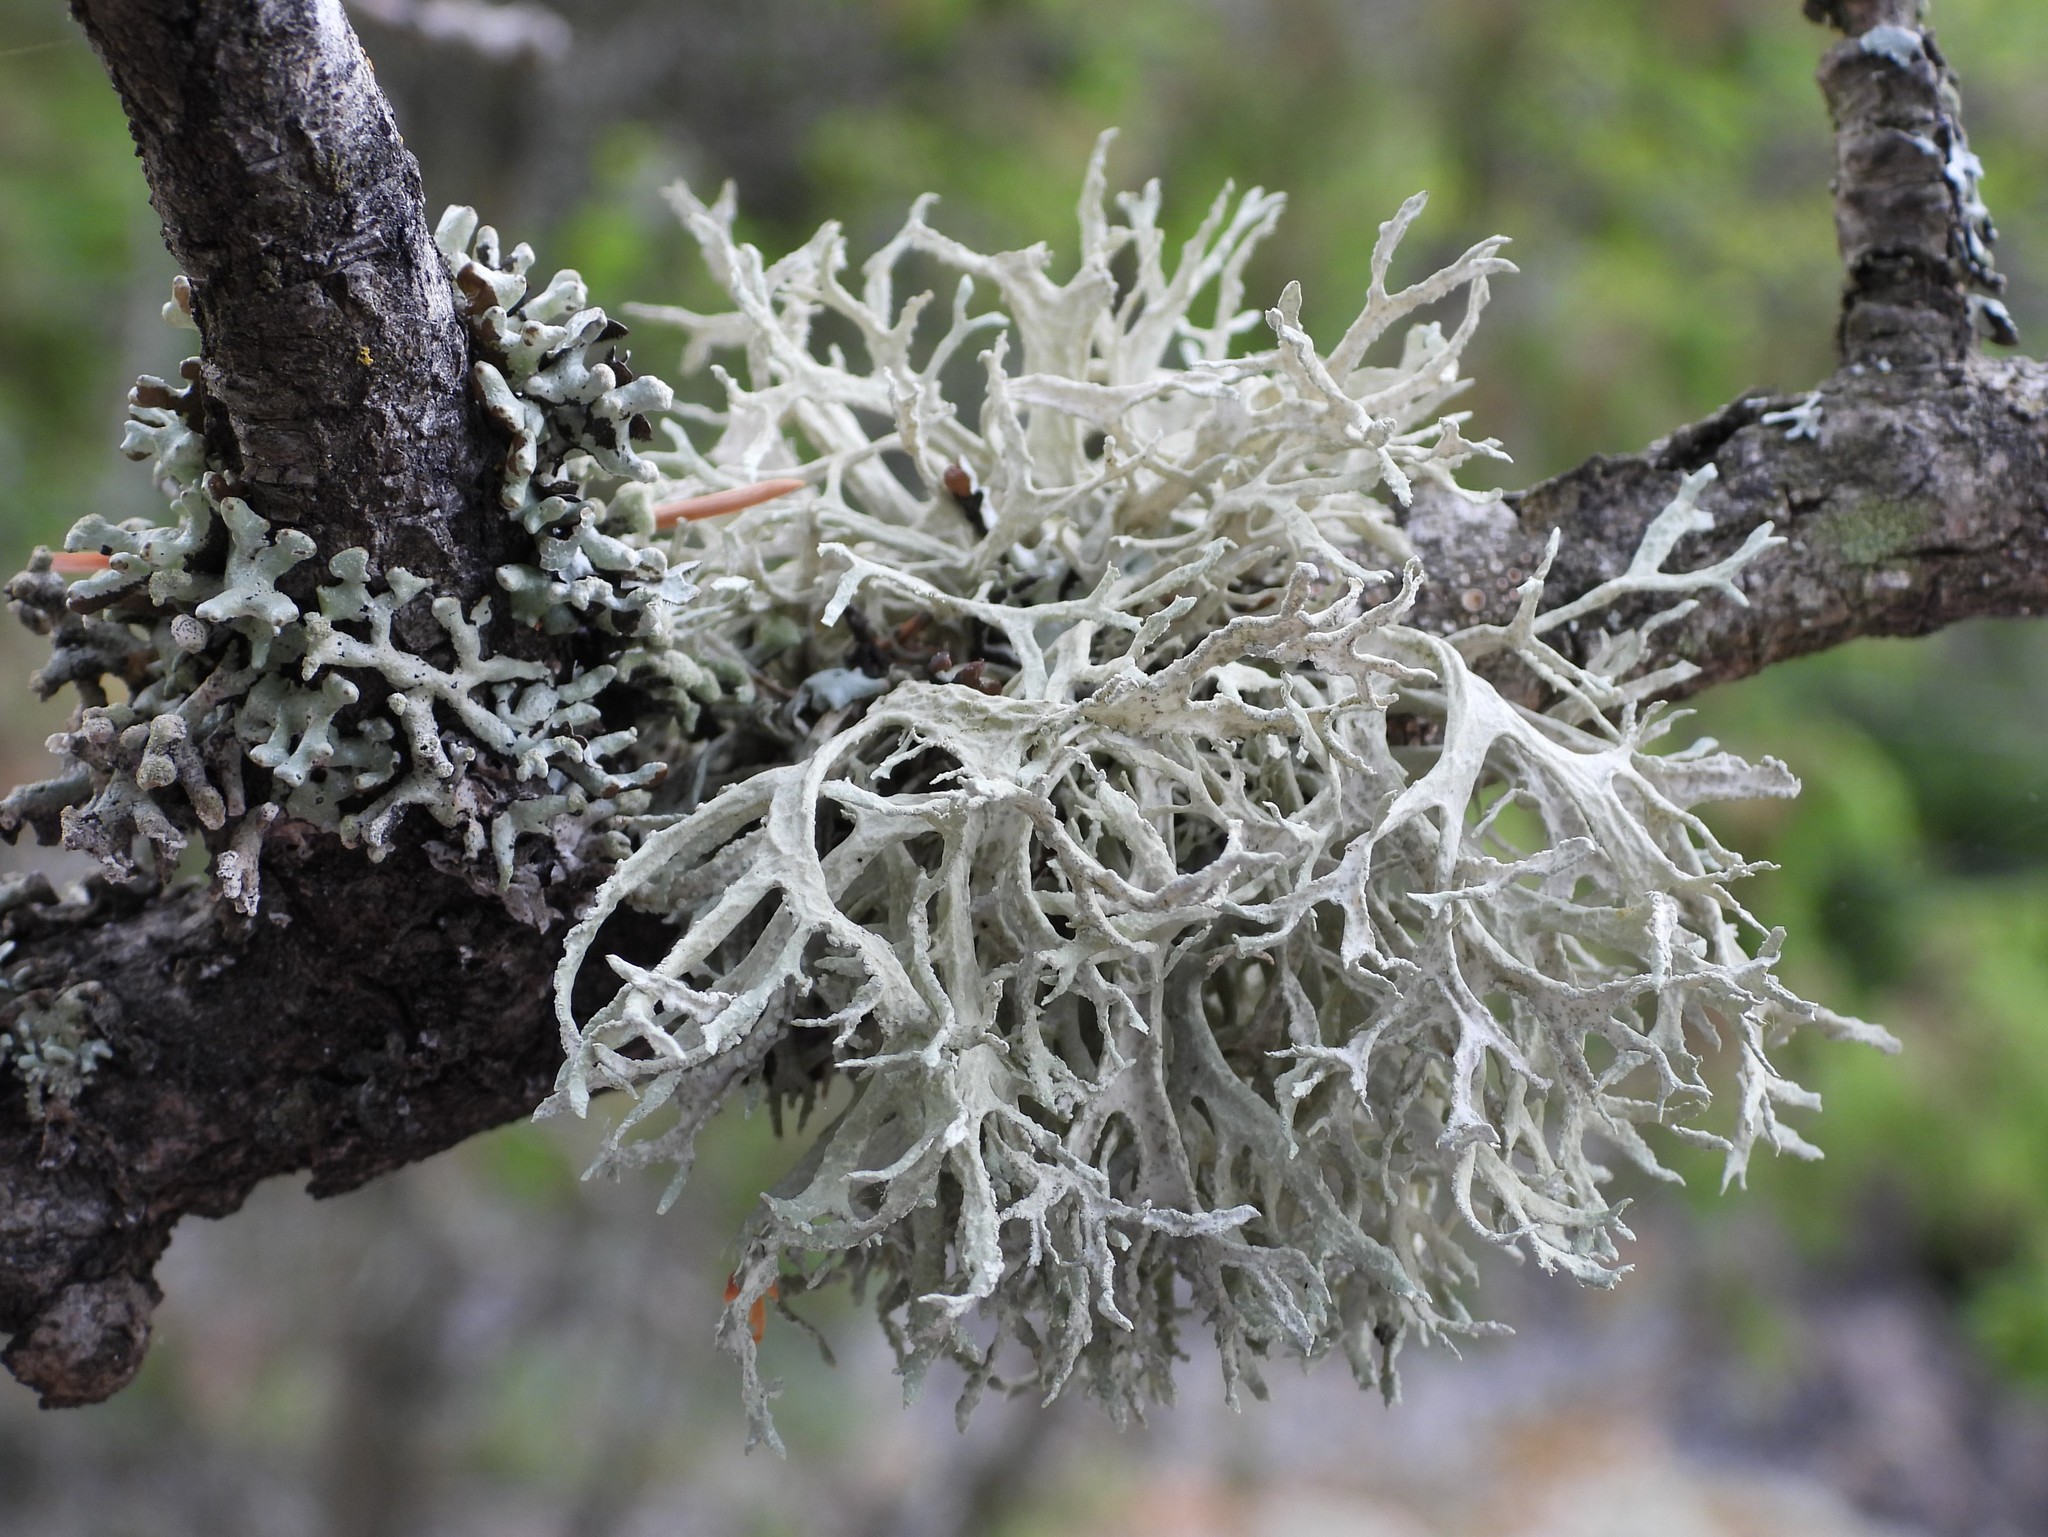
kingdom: Fungi
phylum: Ascomycota
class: Lecanoromycetes
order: Lecanorales
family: Parmeliaceae
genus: Evernia
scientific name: Evernia prunastri
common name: Oak moss
